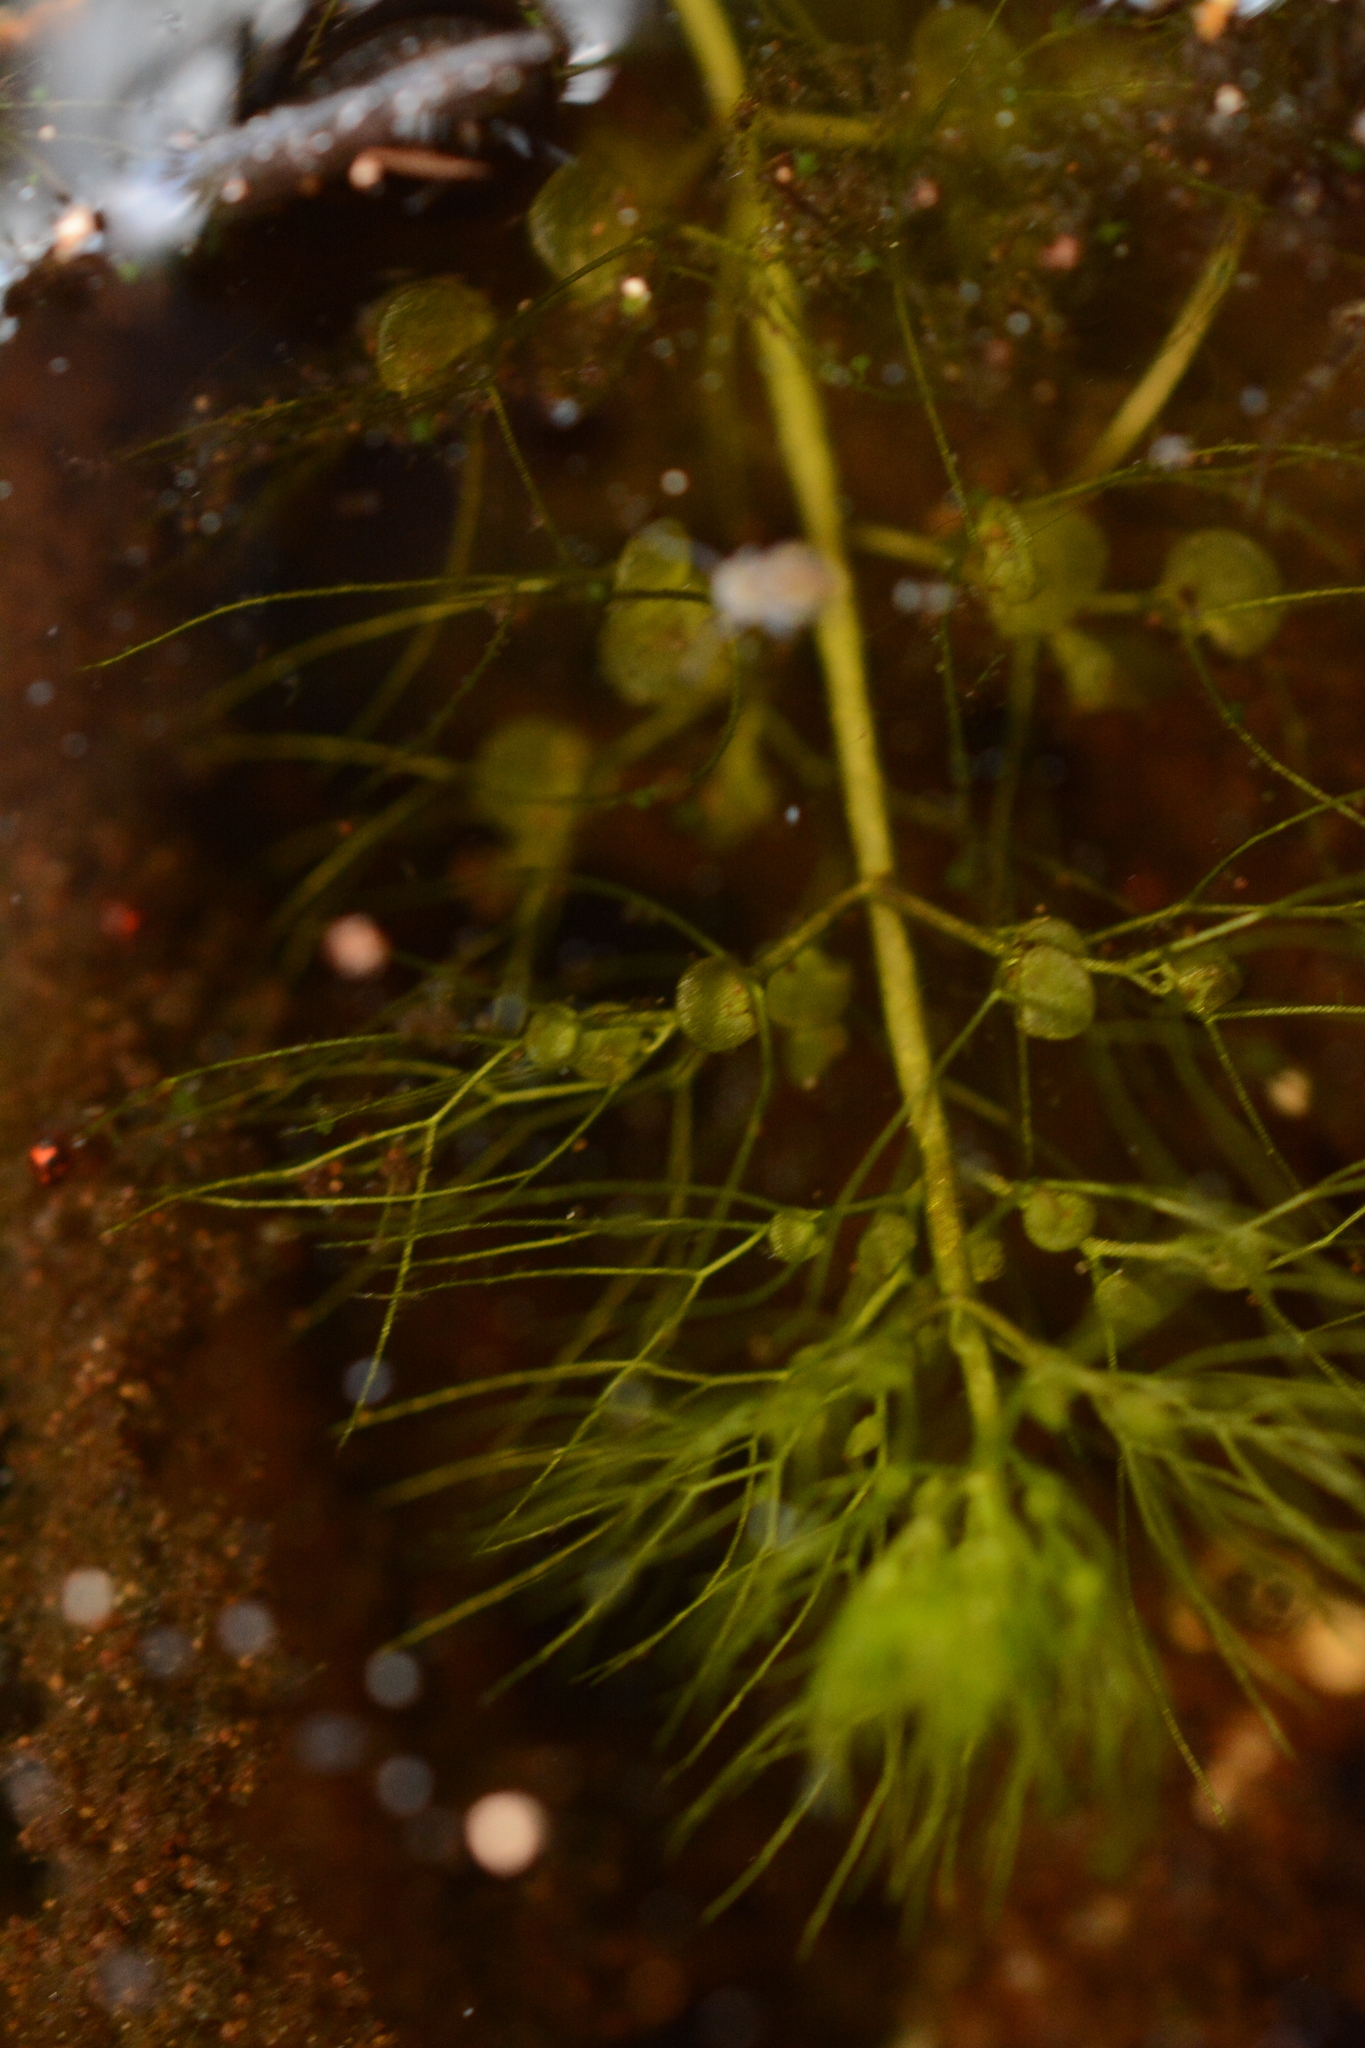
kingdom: Plantae
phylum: Tracheophyta
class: Magnoliopsida
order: Lamiales
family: Lentibulariaceae
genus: Utricularia
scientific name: Utricularia inflata
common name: Floating bladderwort
